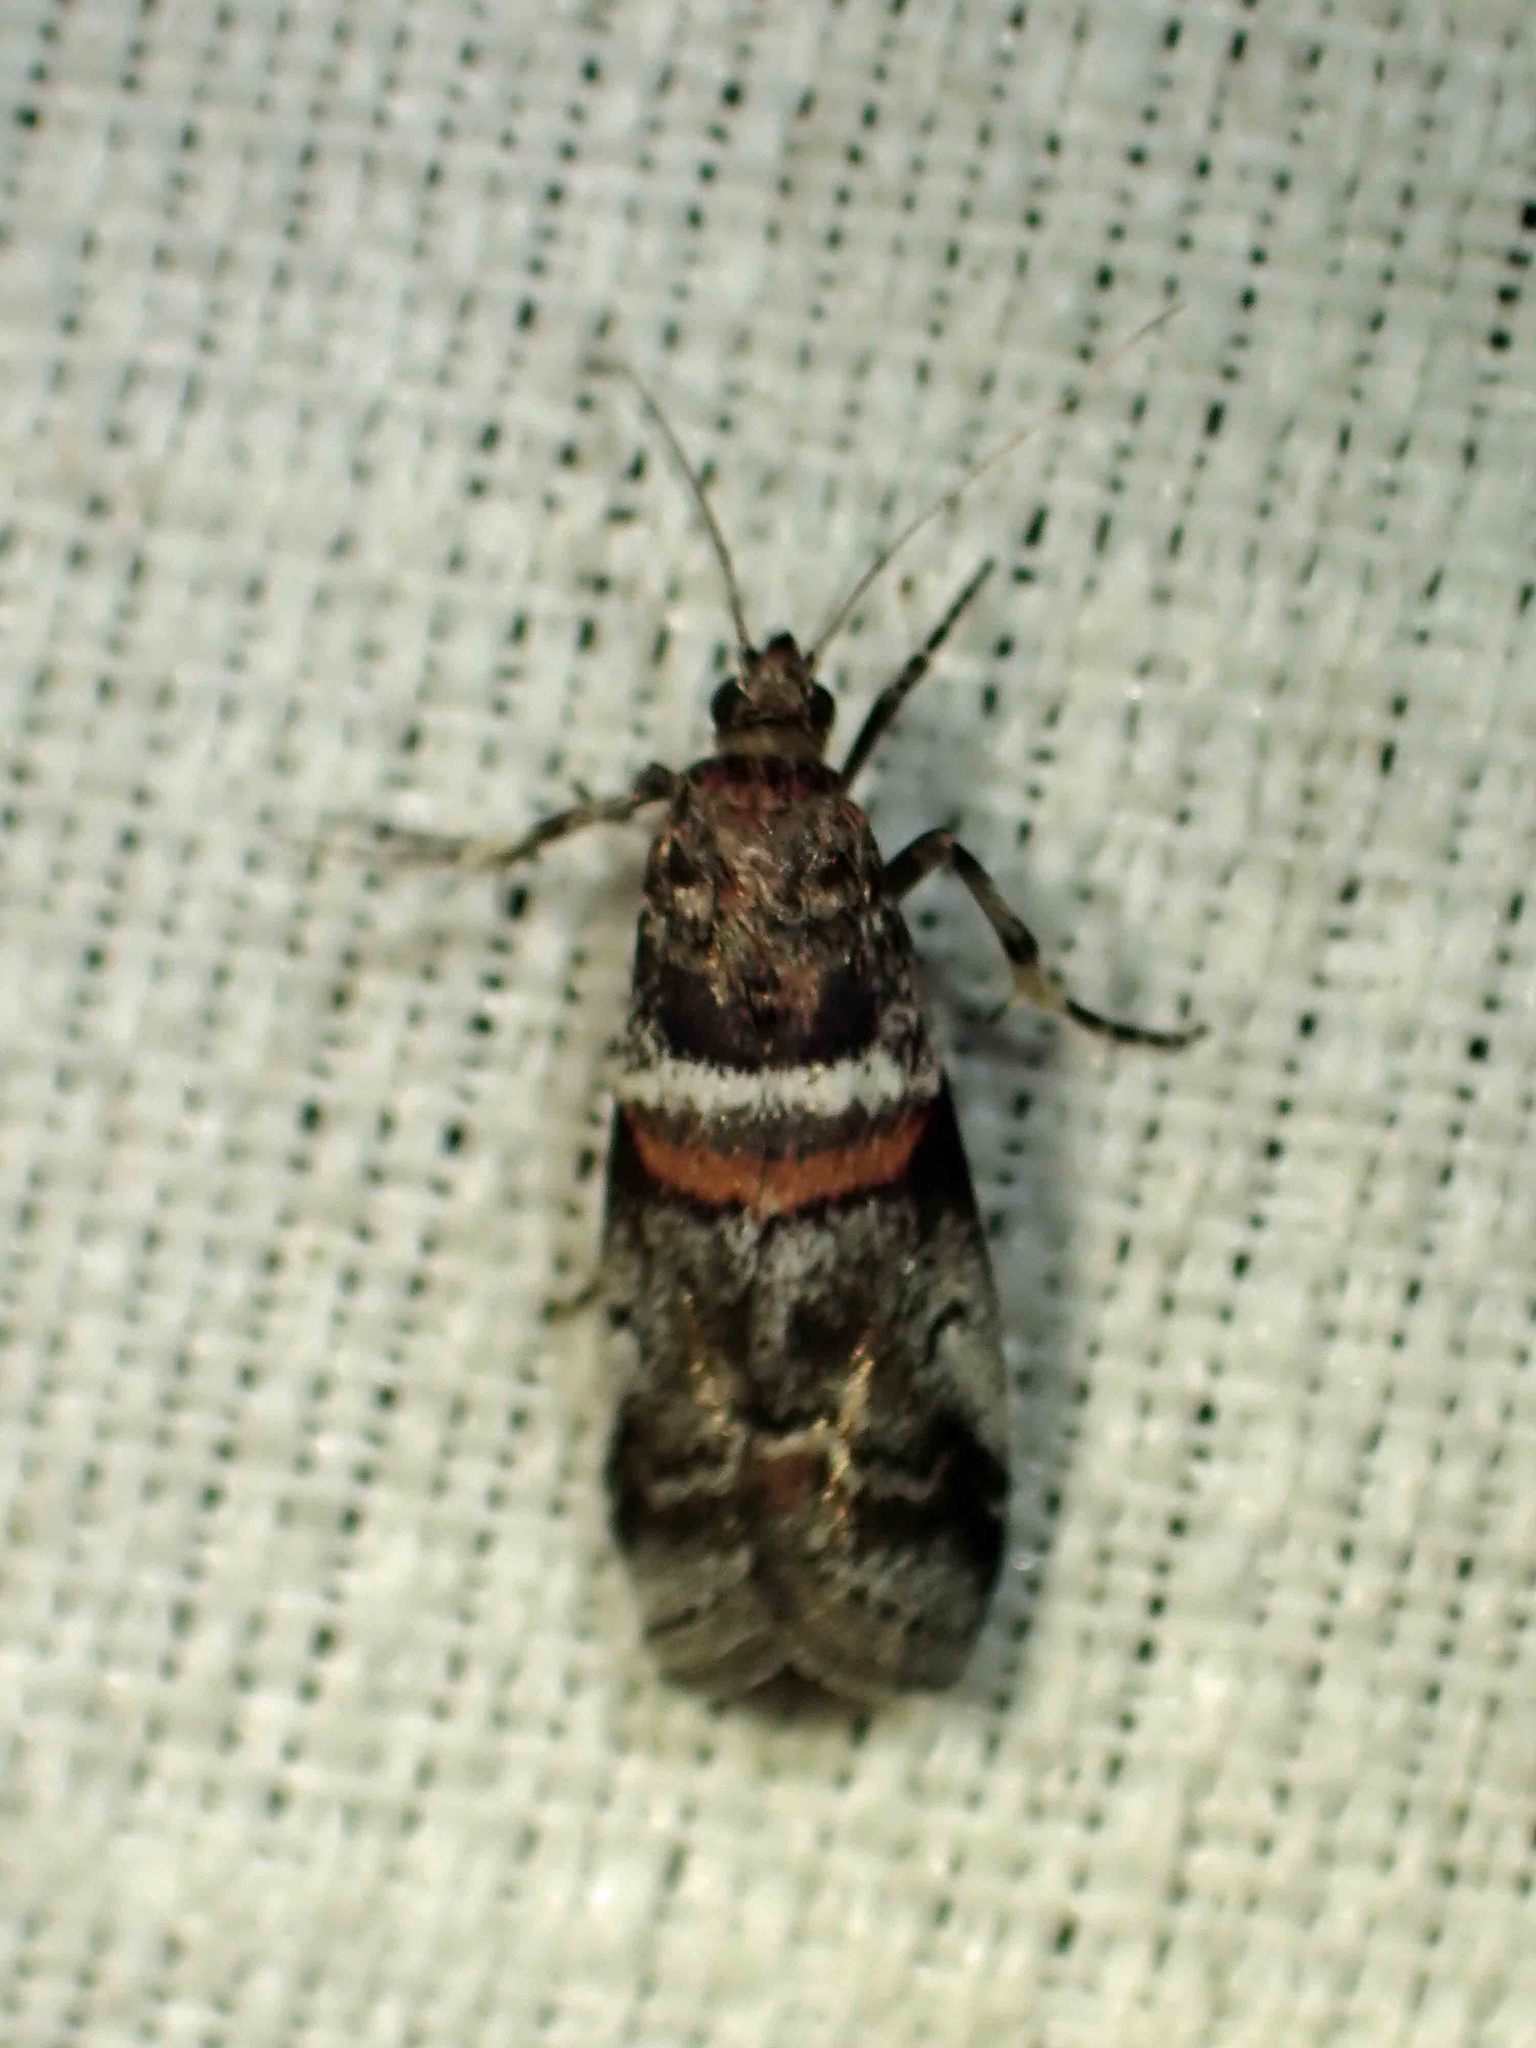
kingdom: Animalia
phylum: Arthropoda
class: Insecta
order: Lepidoptera
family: Pyralidae
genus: Acrobasis
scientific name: Acrobasis tricolorella
